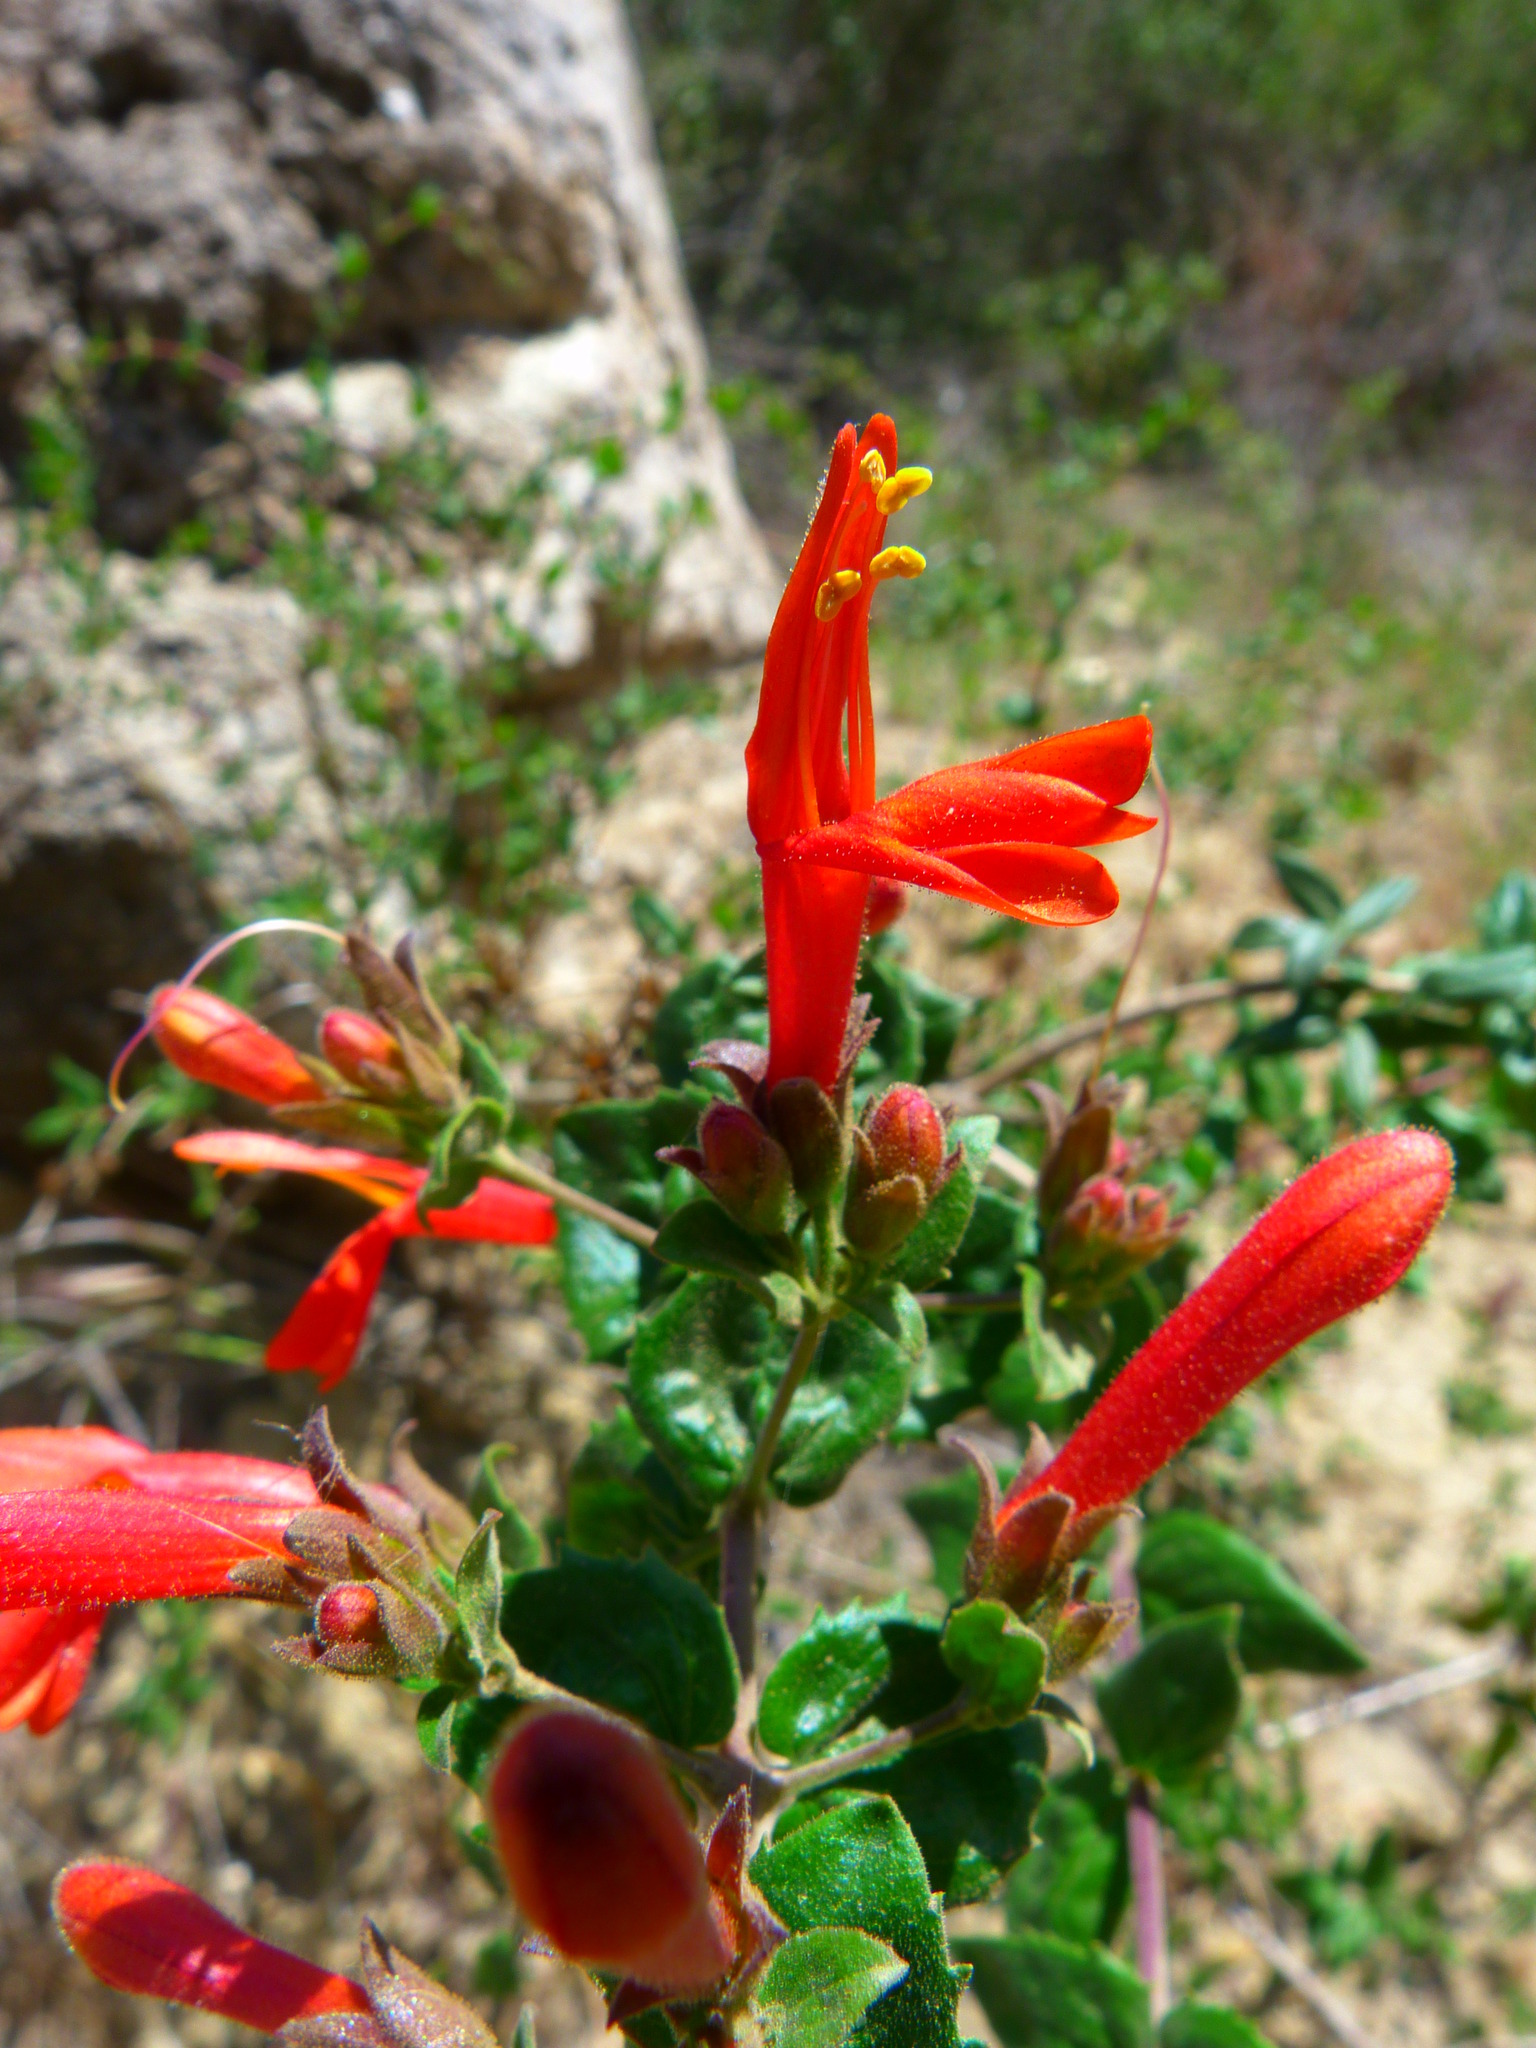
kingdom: Plantae
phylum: Tracheophyta
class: Magnoliopsida
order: Lamiales
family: Plantaginaceae
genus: Keckiella
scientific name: Keckiella cordifolia
